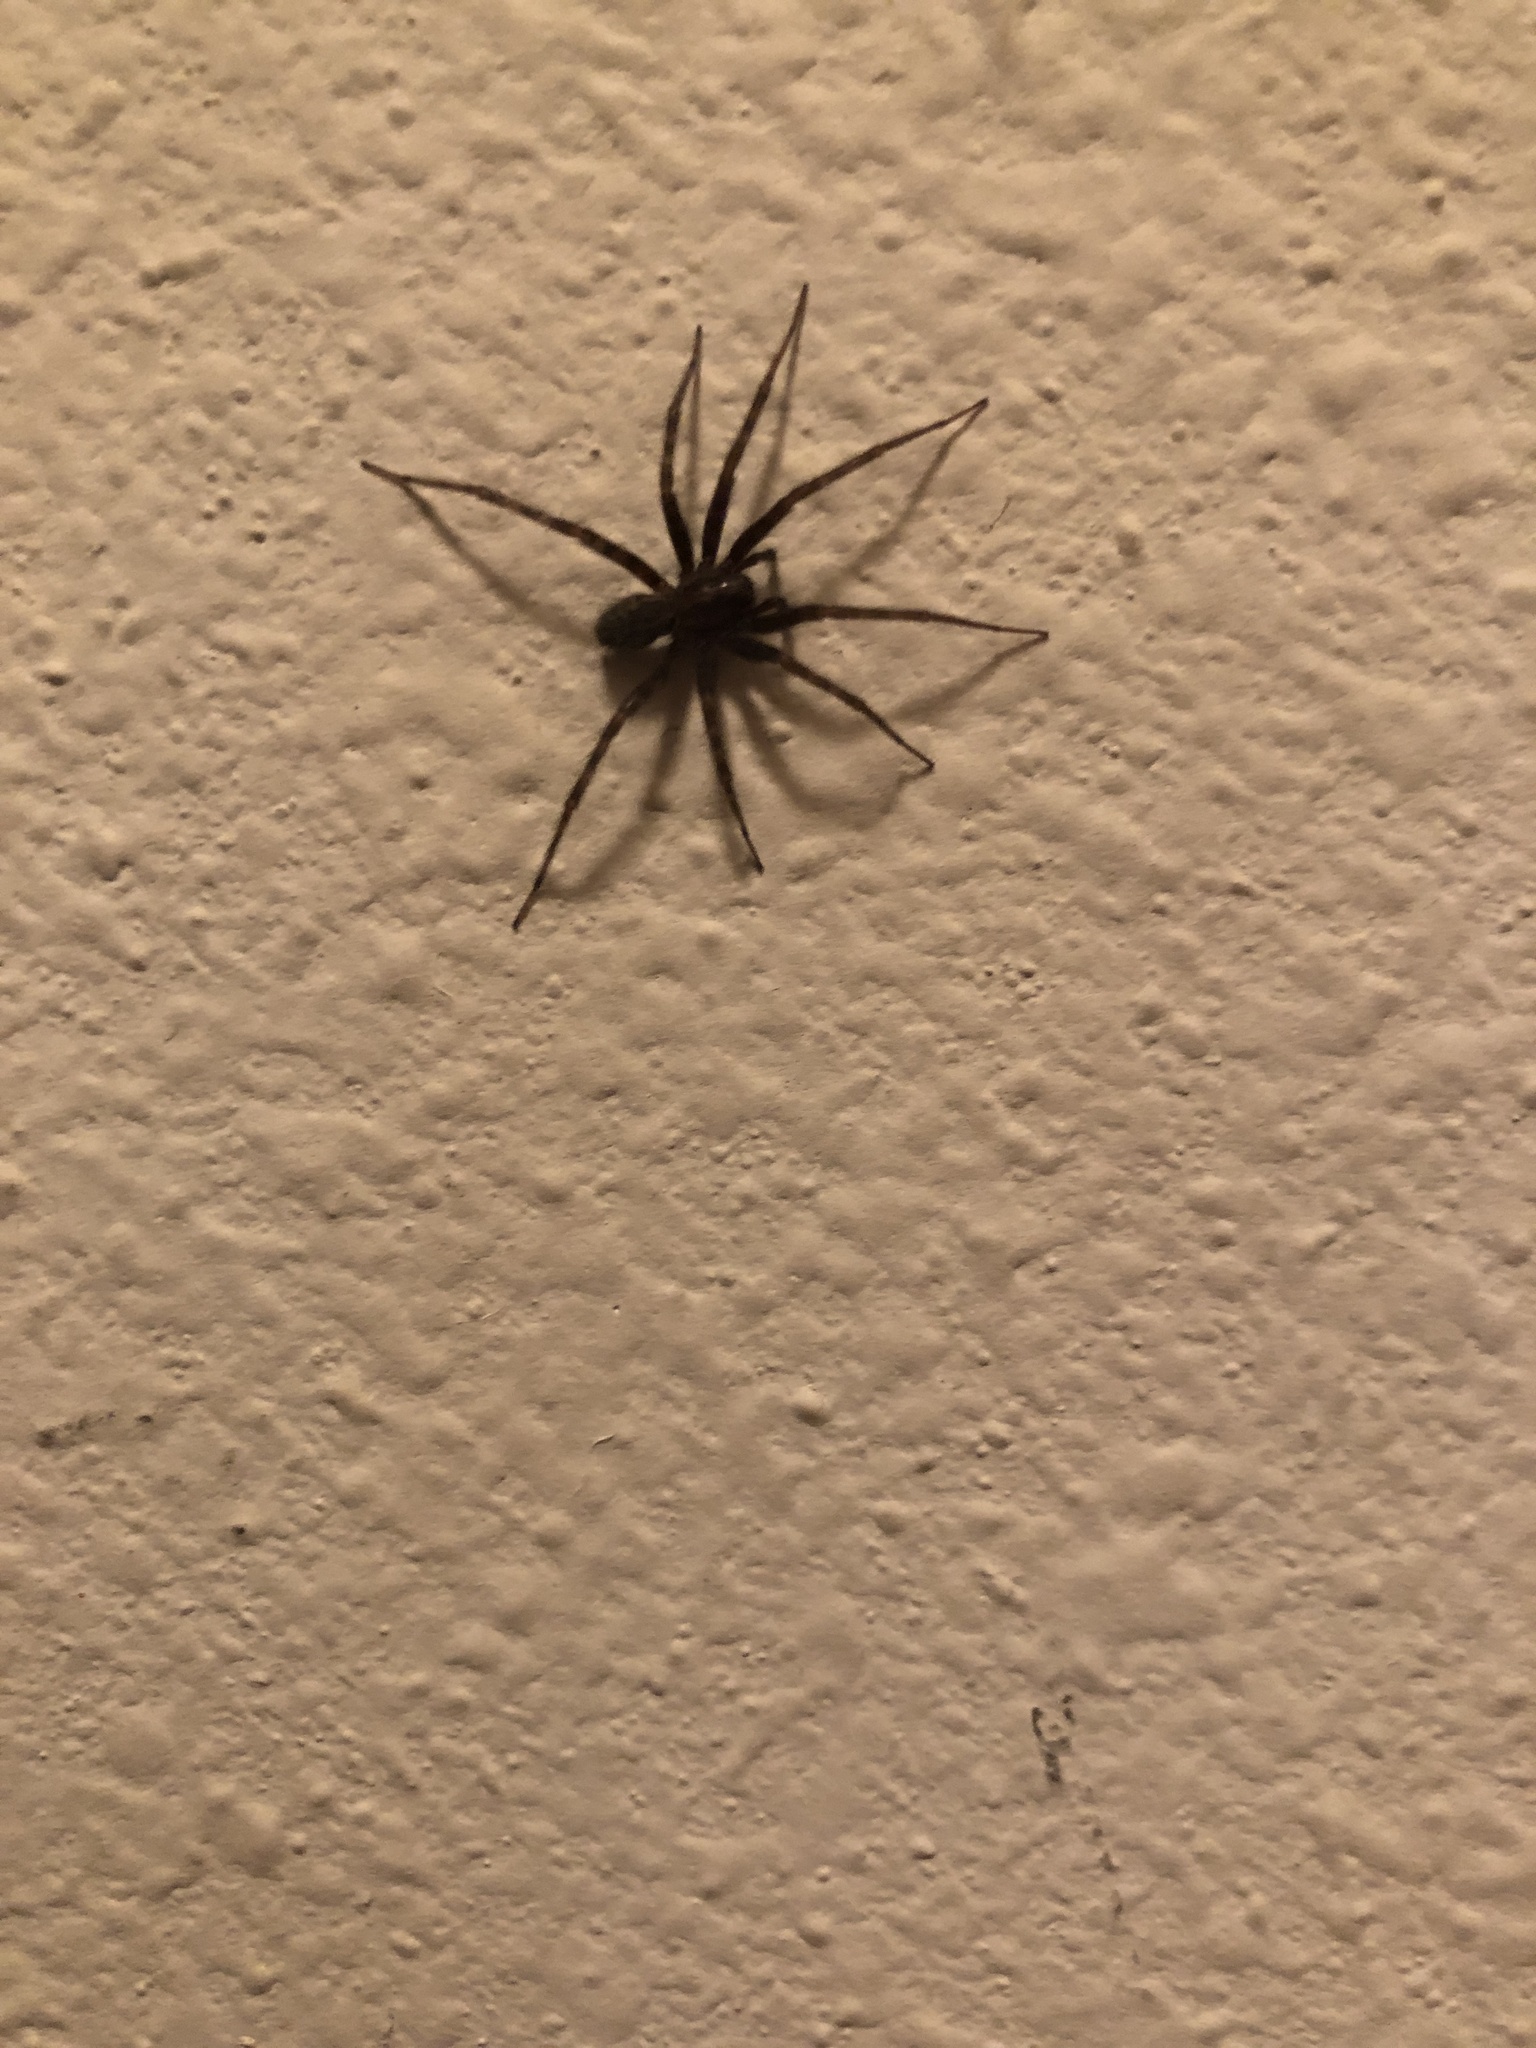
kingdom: Animalia
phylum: Arthropoda
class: Arachnida
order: Araneae
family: Agelenidae
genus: Tegenaria
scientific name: Tegenaria domestica
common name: Barn funnel weaver
